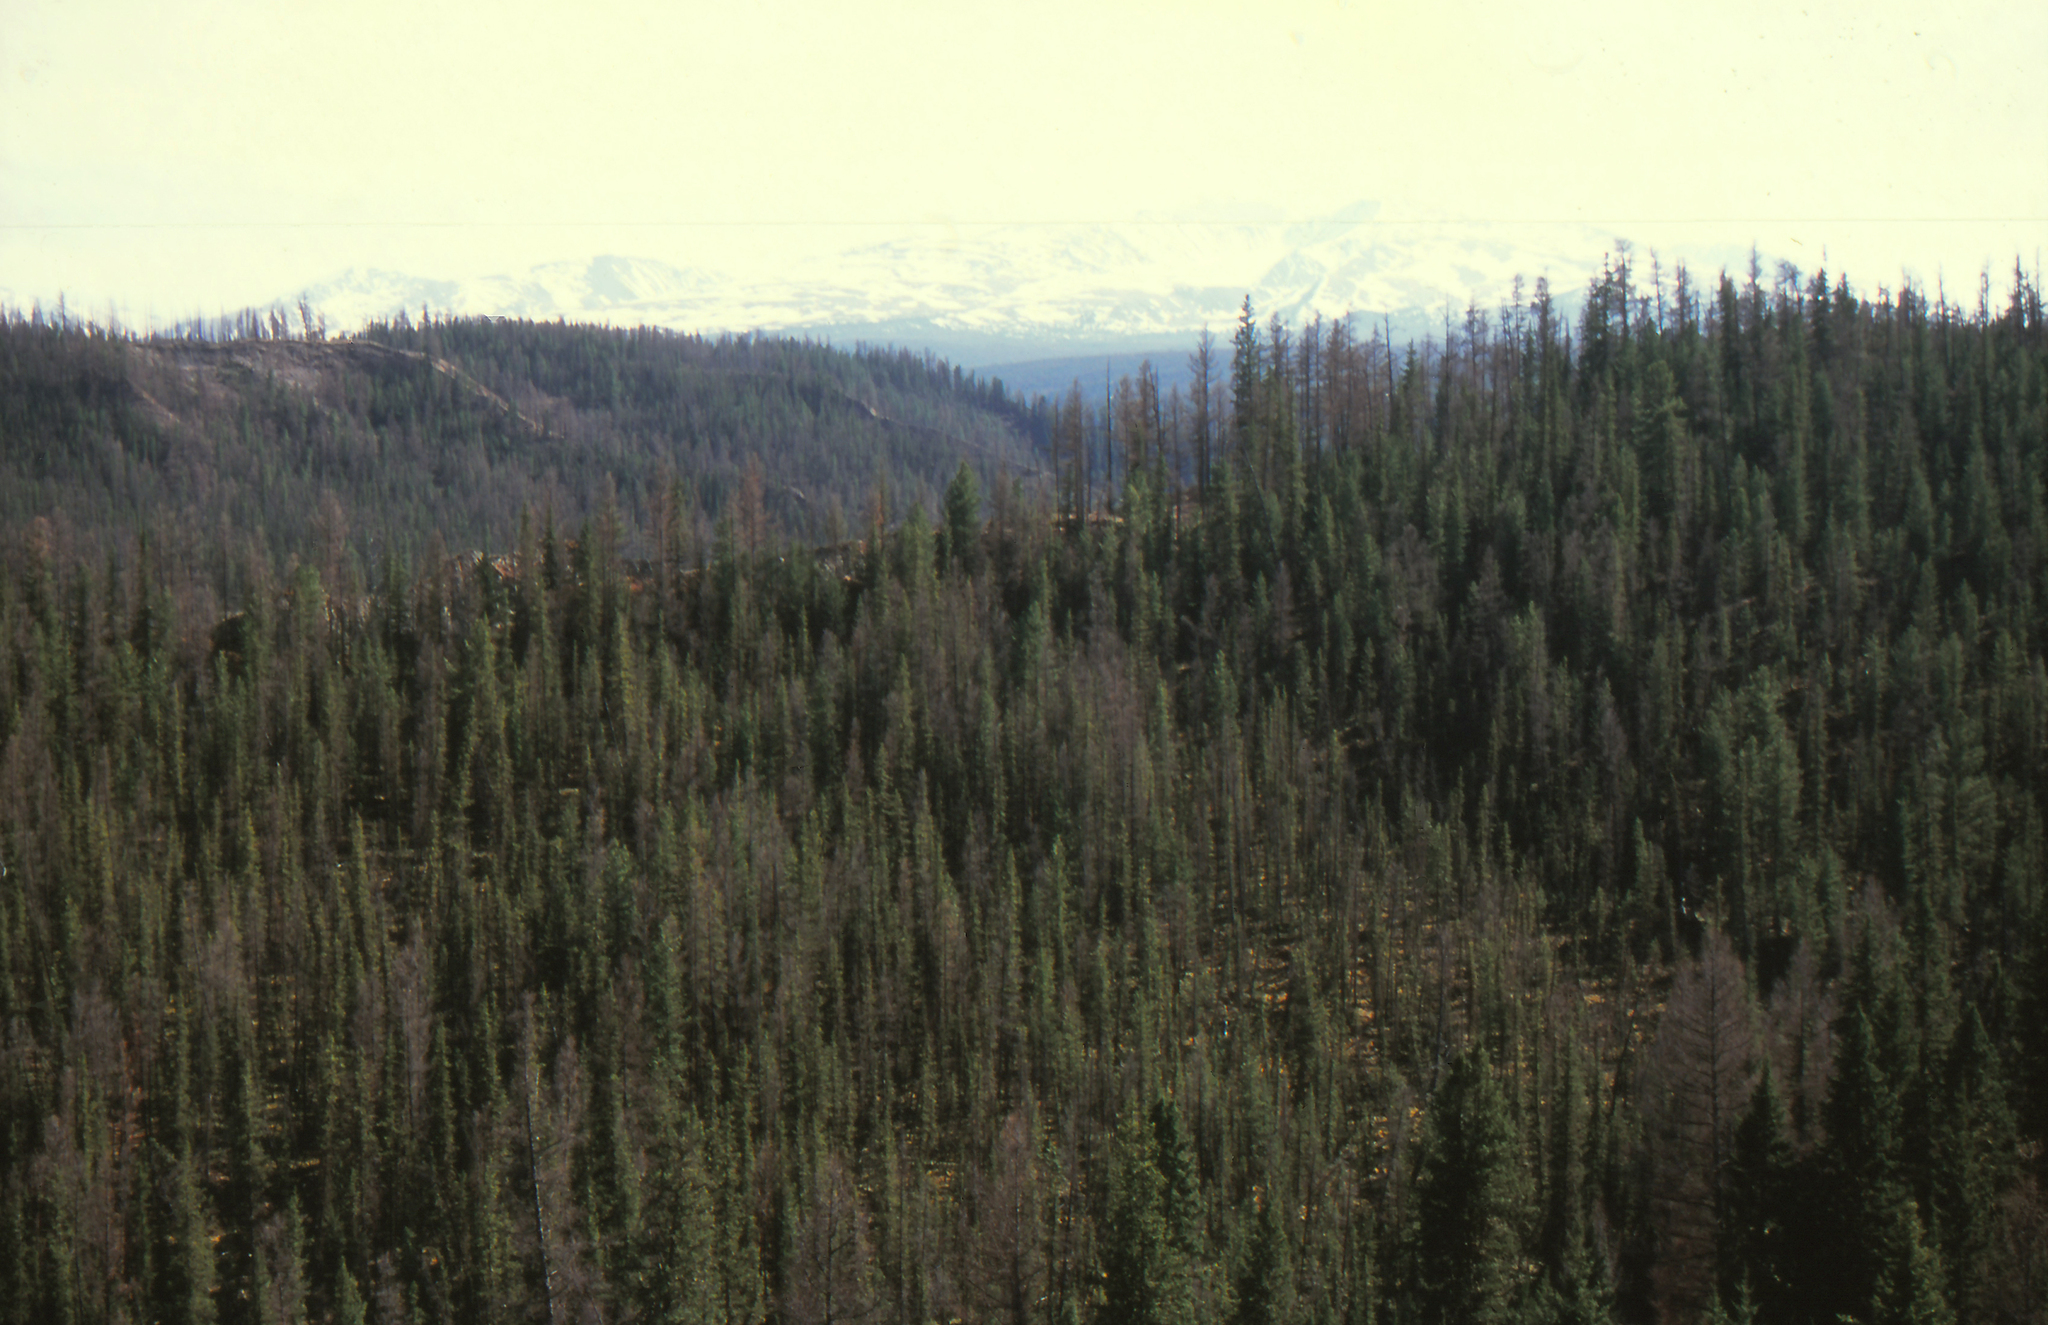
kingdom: Plantae
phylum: Tracheophyta
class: Pinopsida
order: Pinales
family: Pinaceae
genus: Picea
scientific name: Picea obovata
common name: Siberian spruce
